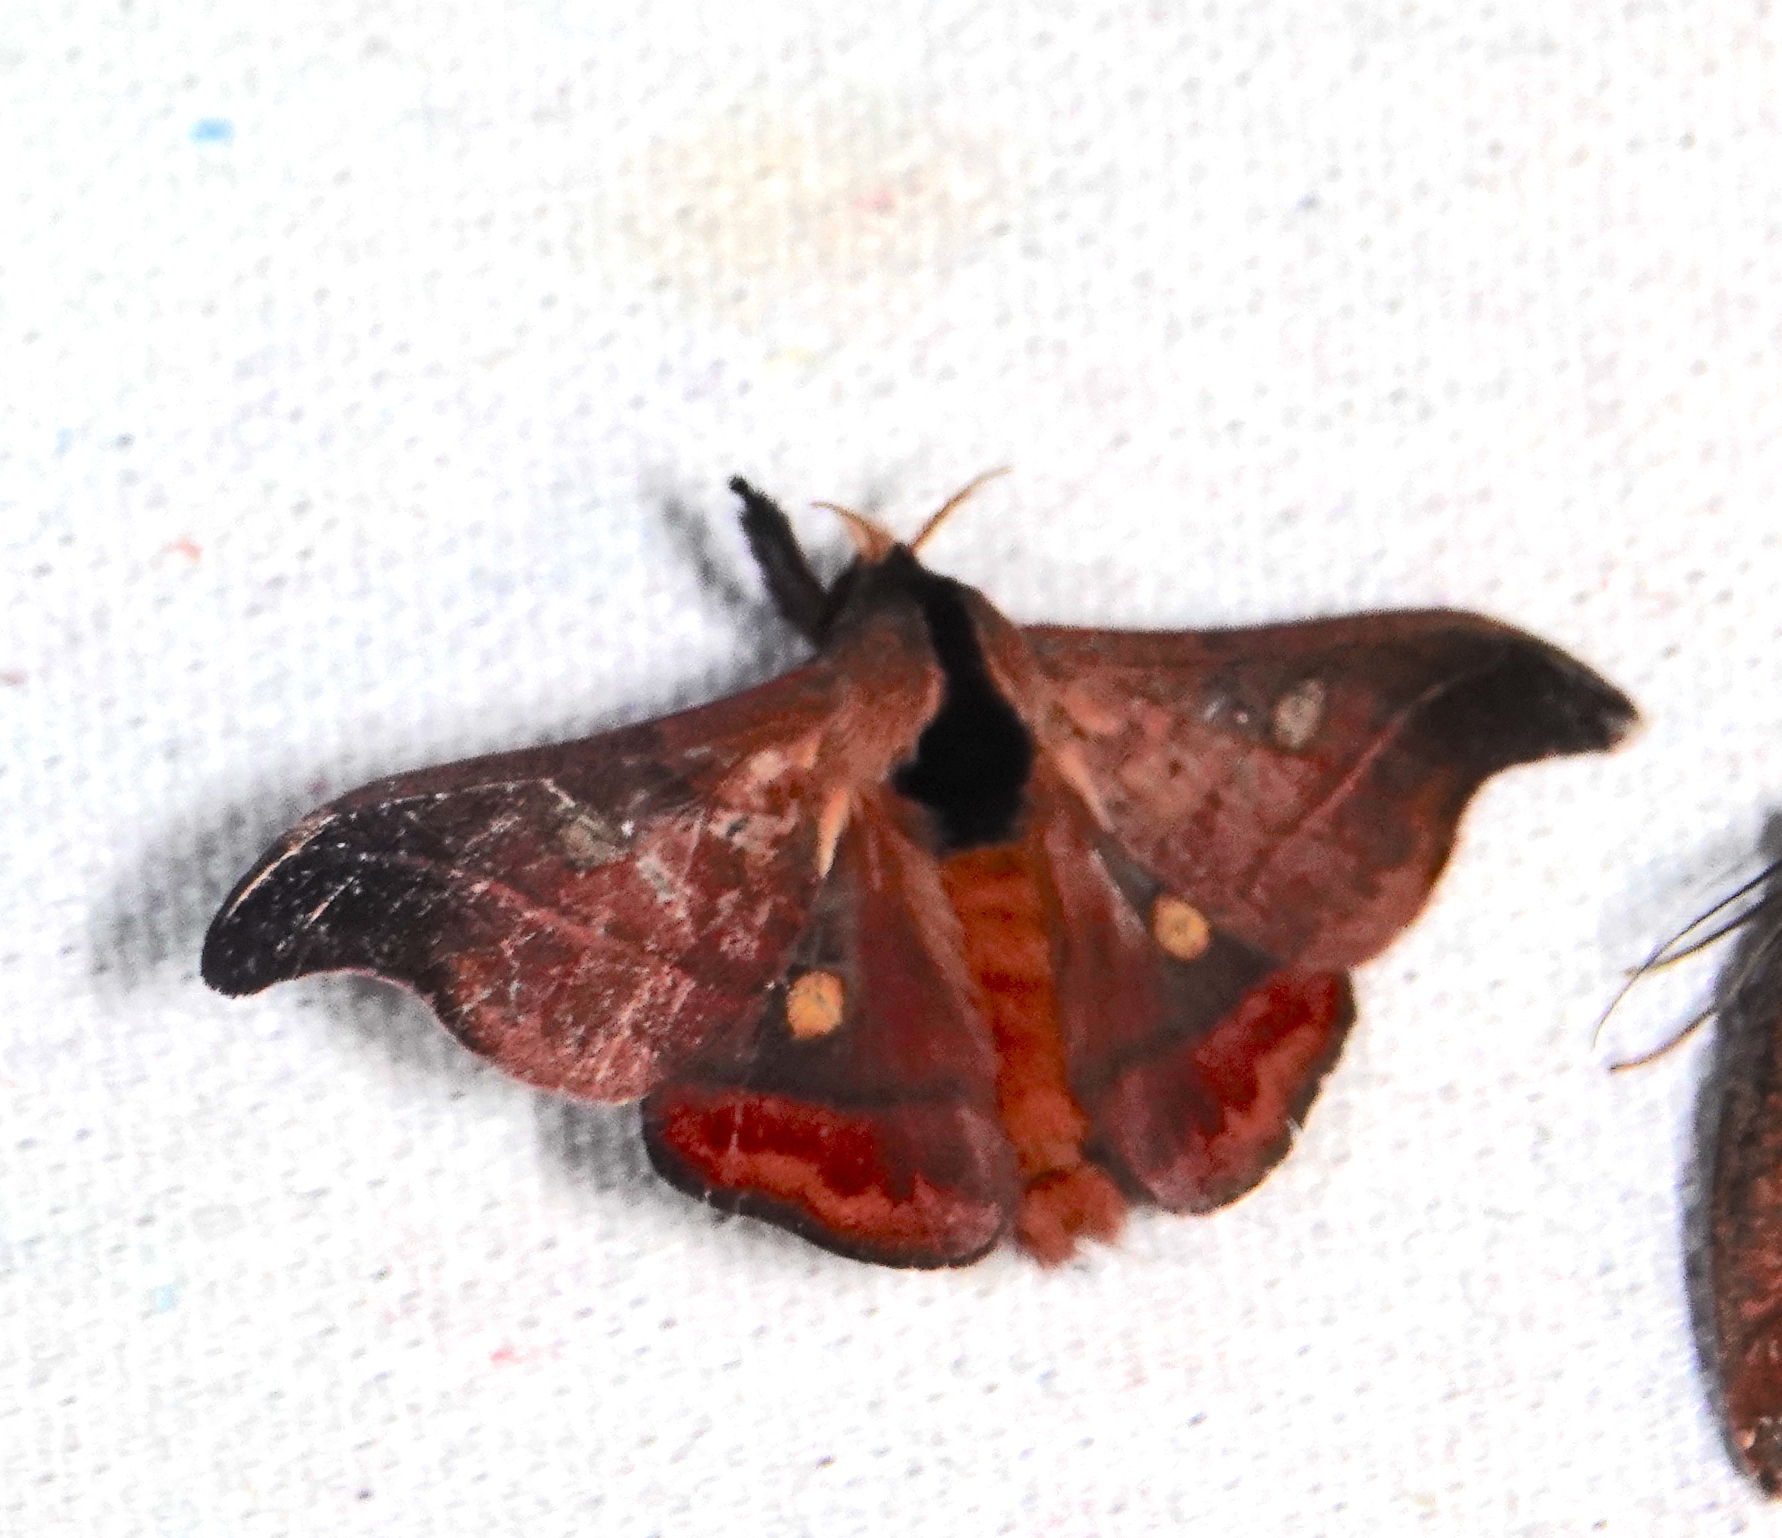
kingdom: Animalia
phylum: Arthropoda
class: Insecta
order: Lepidoptera
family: Saturniidae
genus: Hylesia
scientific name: Hylesia nanus
